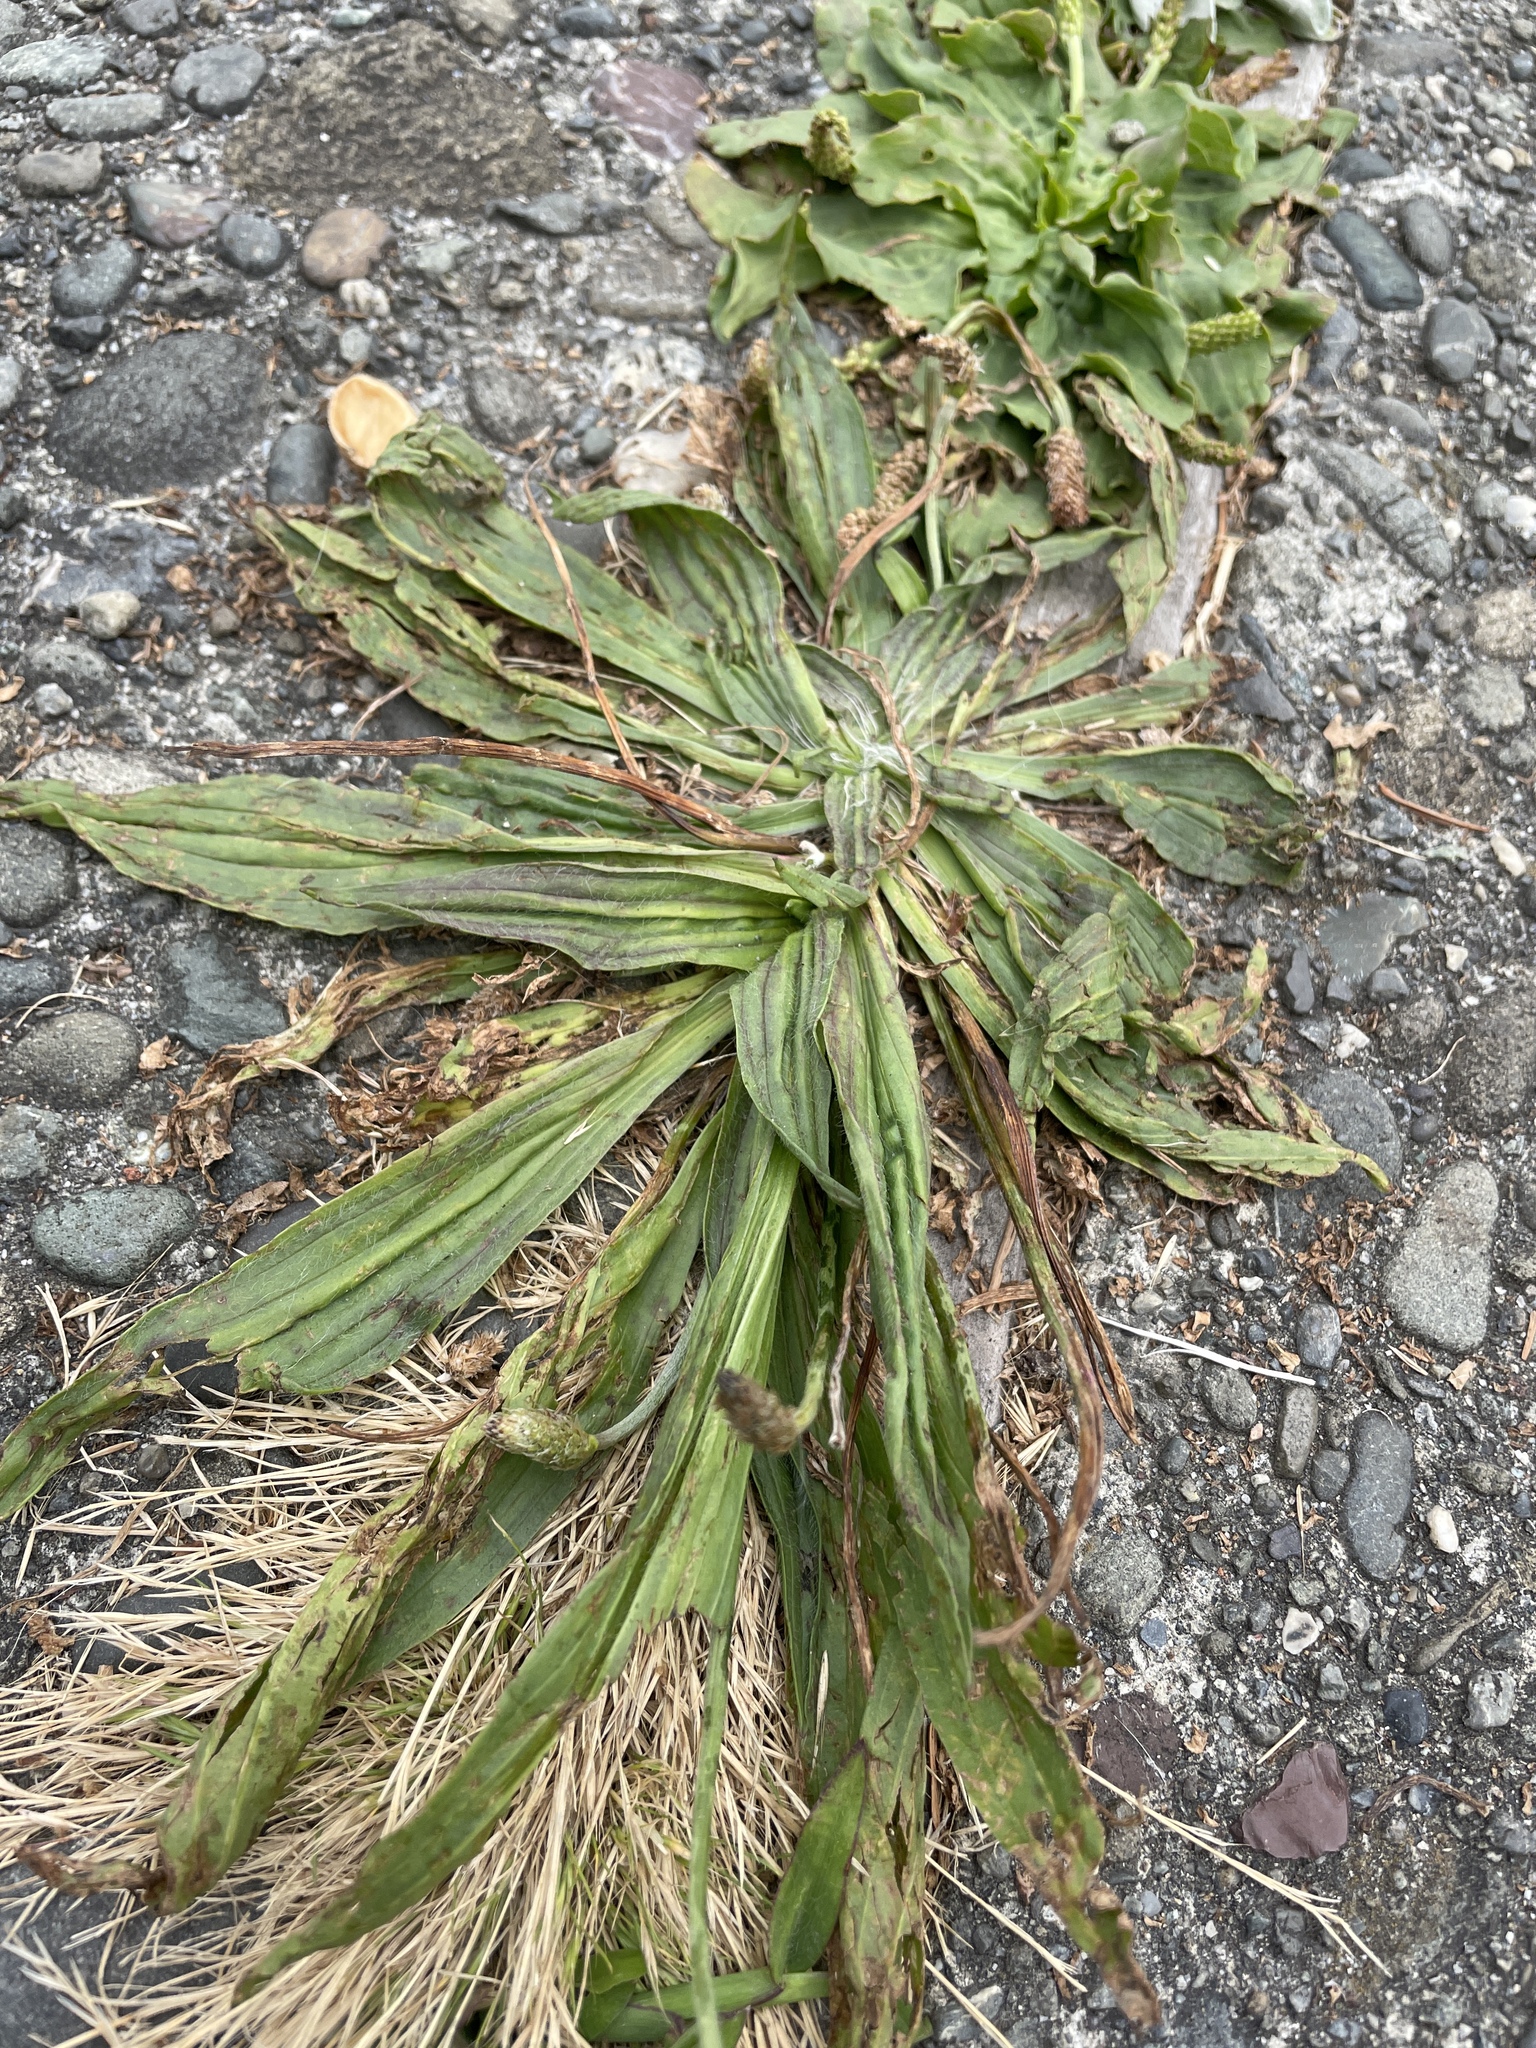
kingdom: Plantae
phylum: Tracheophyta
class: Magnoliopsida
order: Lamiales
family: Plantaginaceae
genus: Plantago
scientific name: Plantago lanceolata
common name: Ribwort plantain
